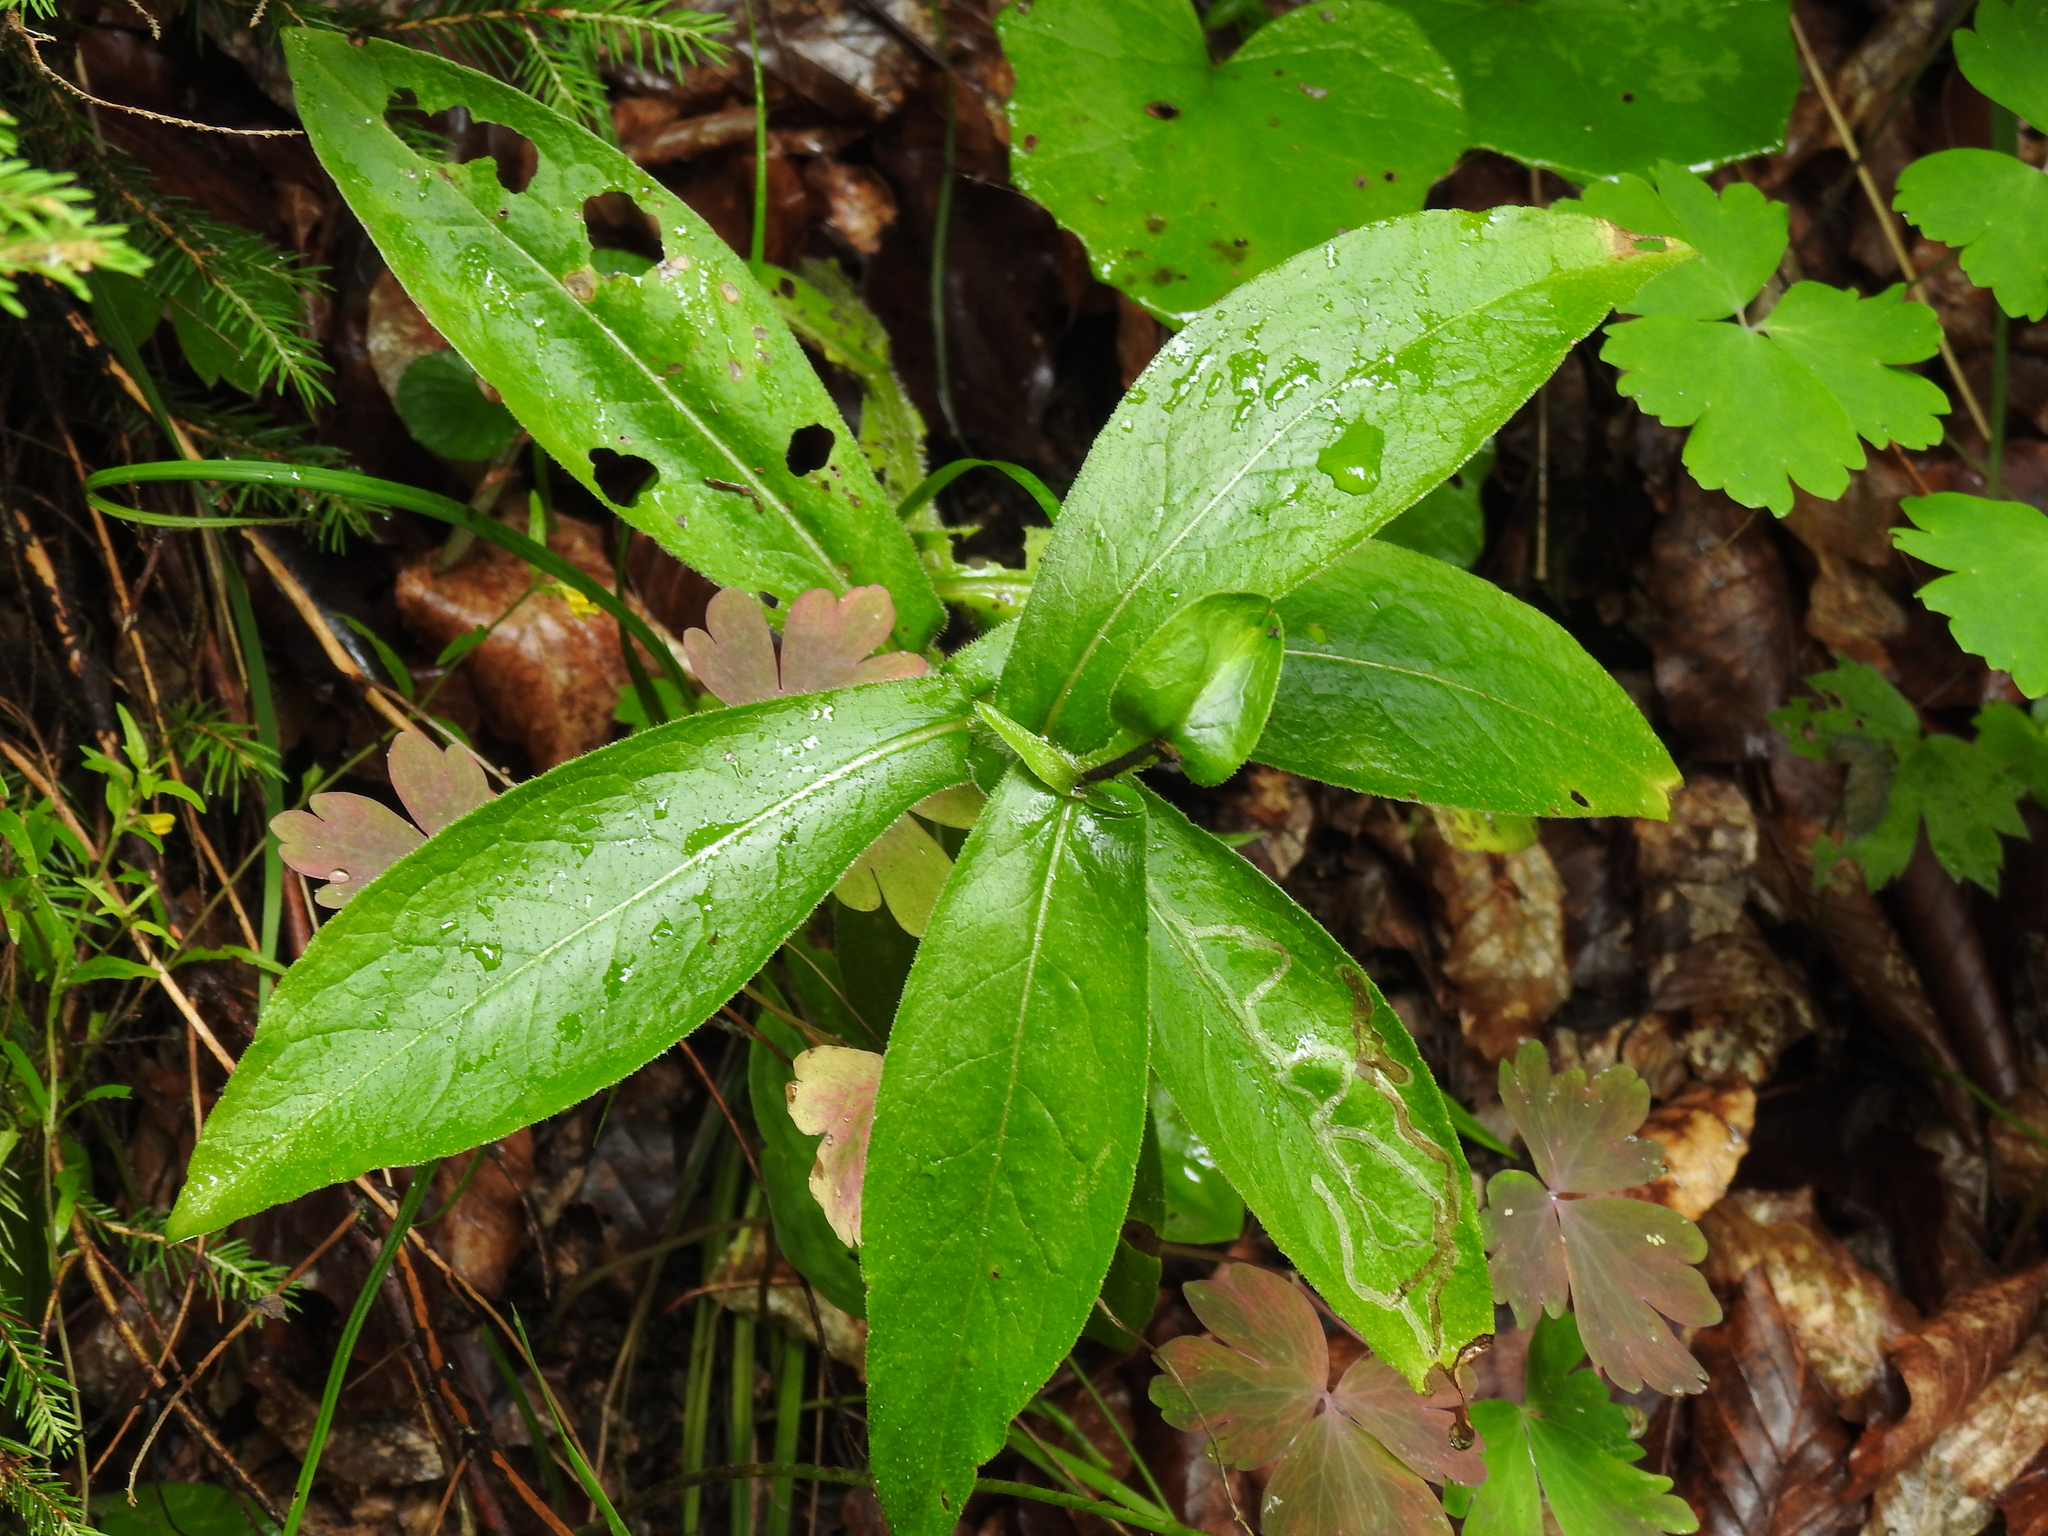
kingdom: Plantae
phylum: Tracheophyta
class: Magnoliopsida
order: Asterales
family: Asteraceae
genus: Centaurea
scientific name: Centaurea montana
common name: Perennial cornflower
